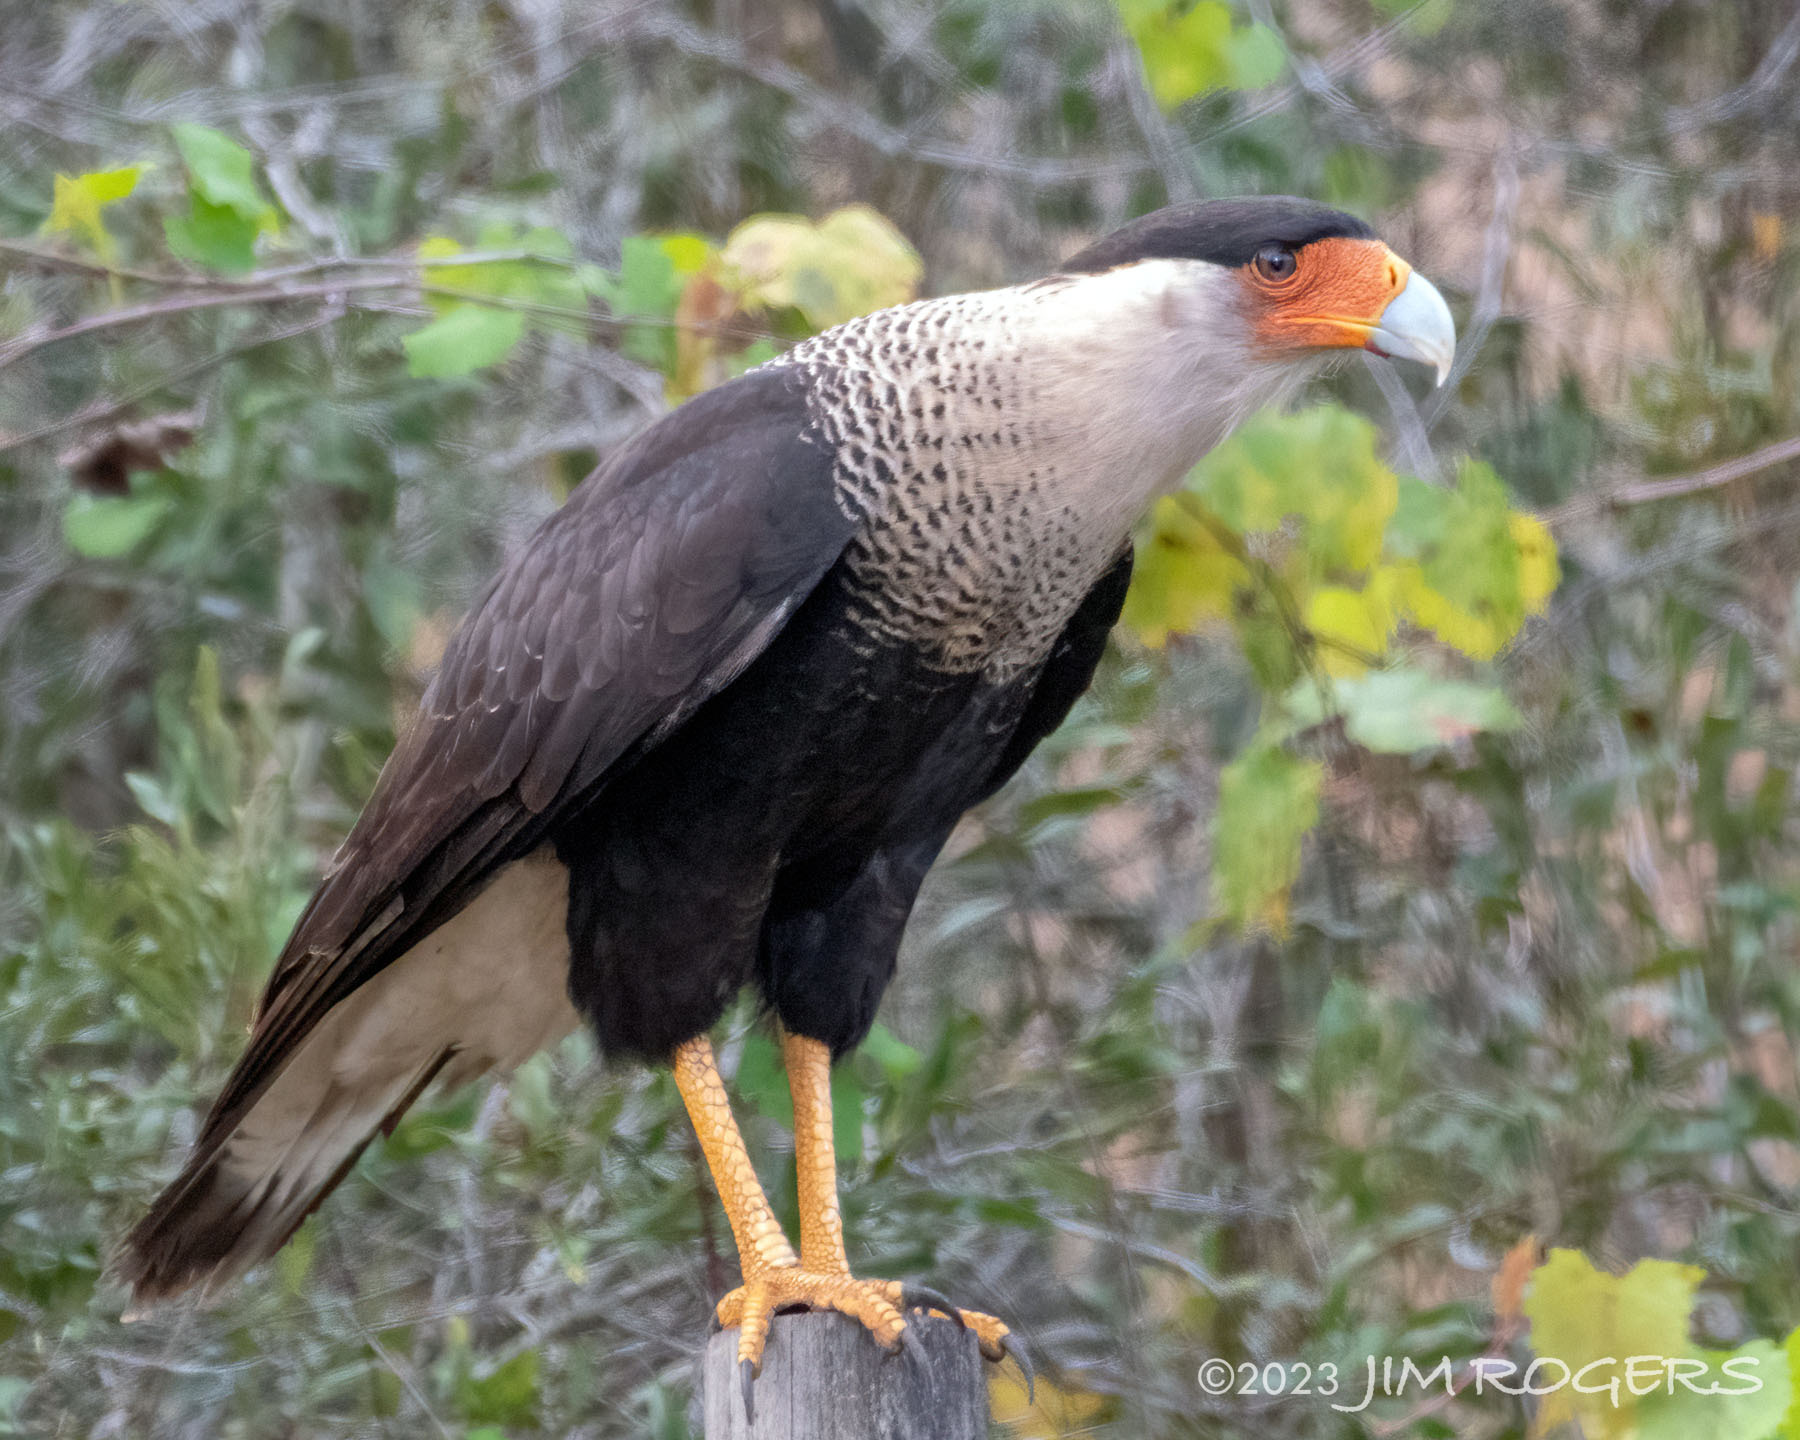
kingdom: Animalia
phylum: Chordata
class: Aves
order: Falconiformes
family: Falconidae
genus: Caracara
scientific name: Caracara plancus
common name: Southern caracara
